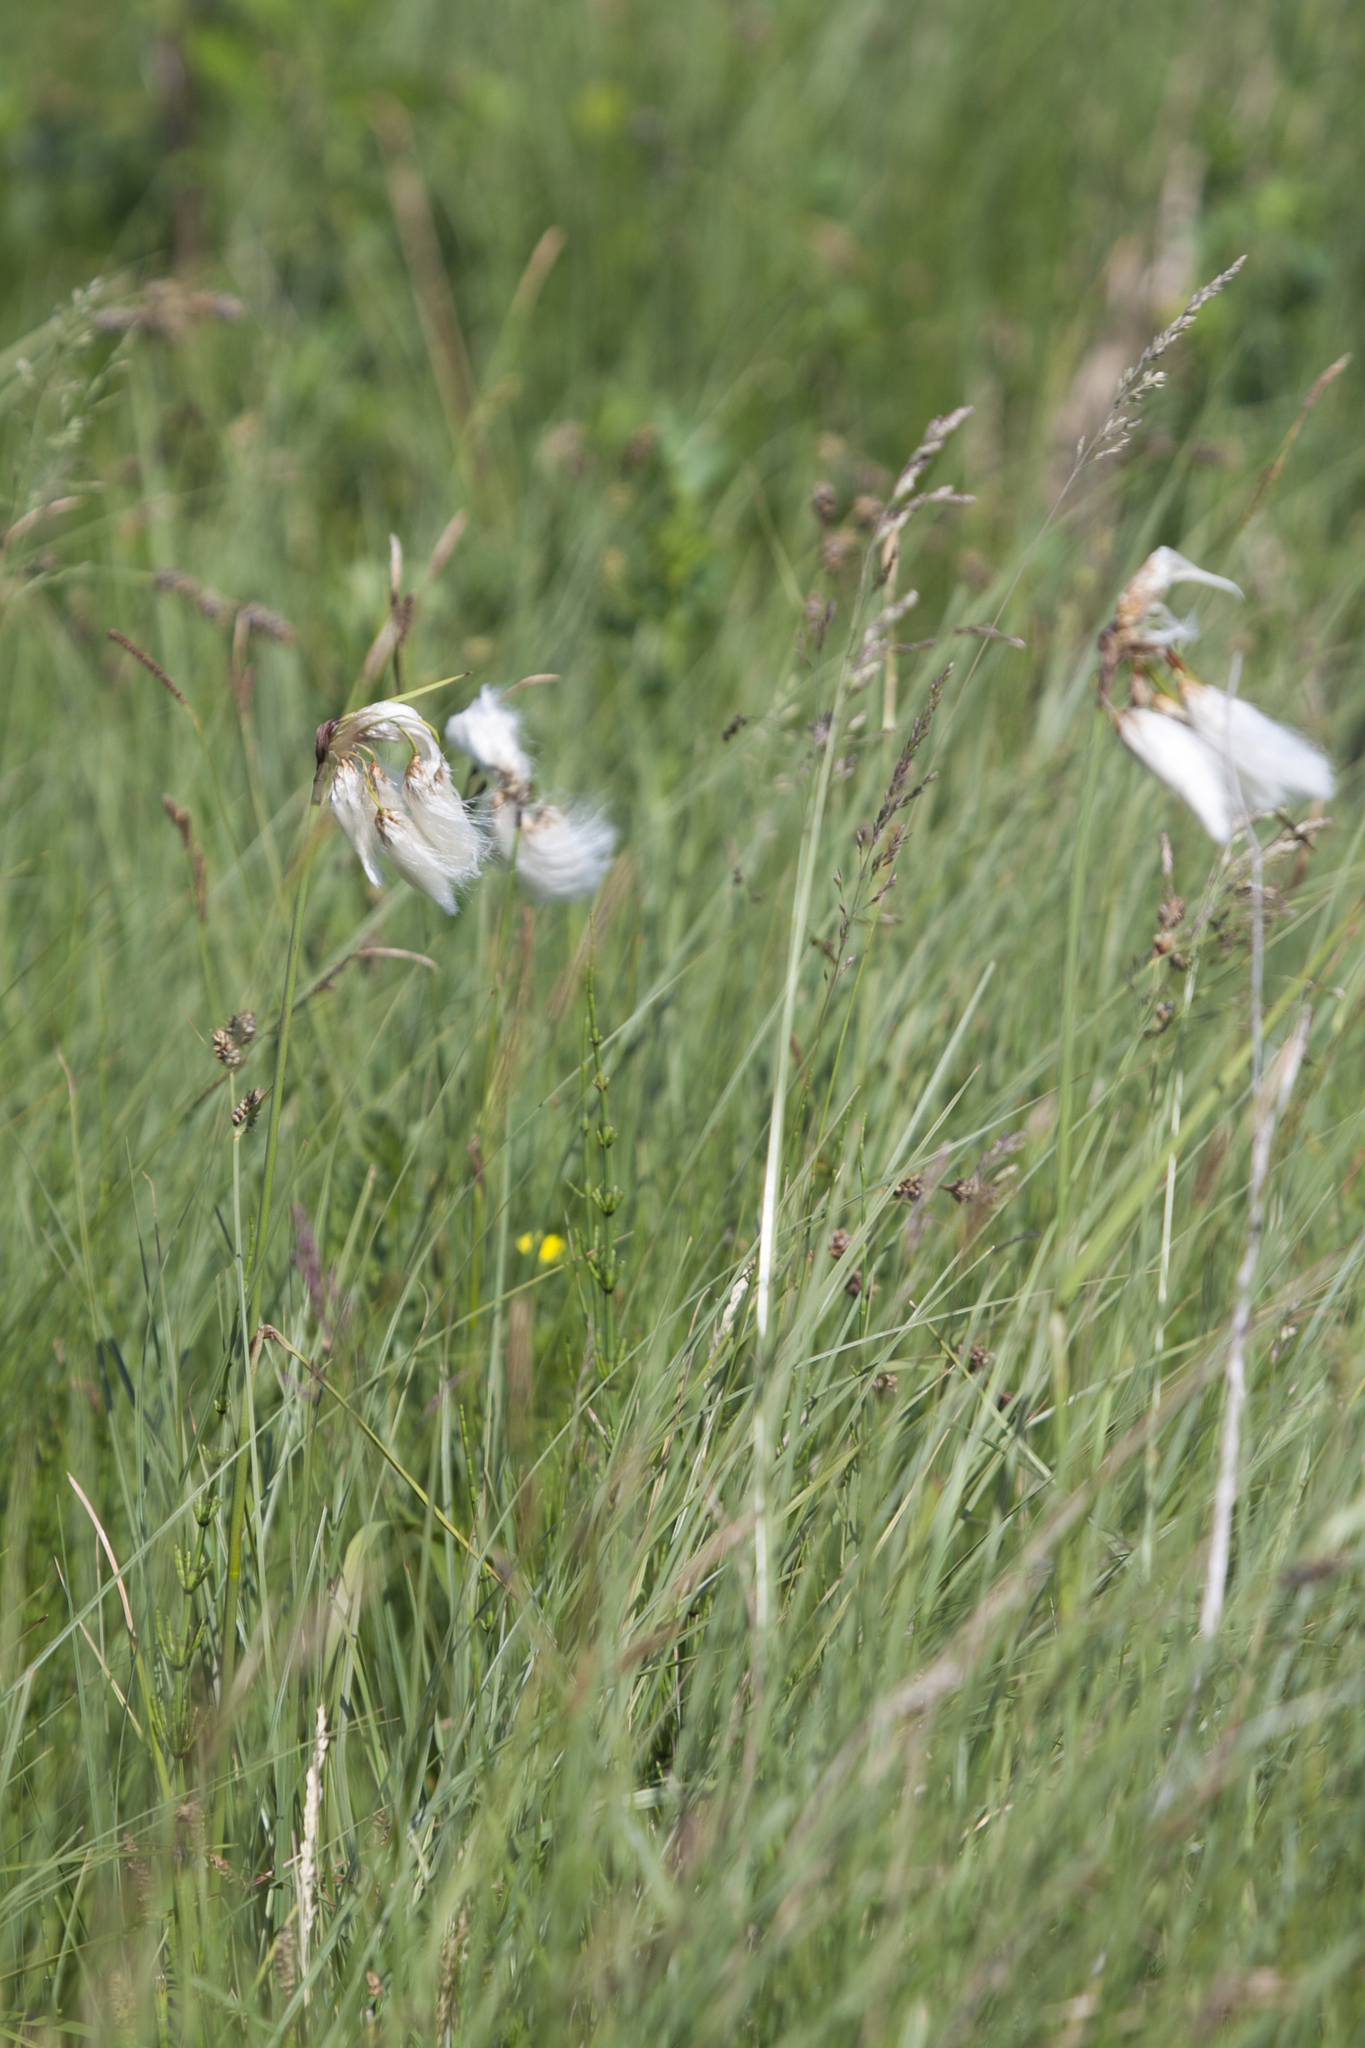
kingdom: Plantae
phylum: Tracheophyta
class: Liliopsida
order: Poales
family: Cyperaceae
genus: Eriophorum
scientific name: Eriophorum angustifolium
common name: Common cottongrass
